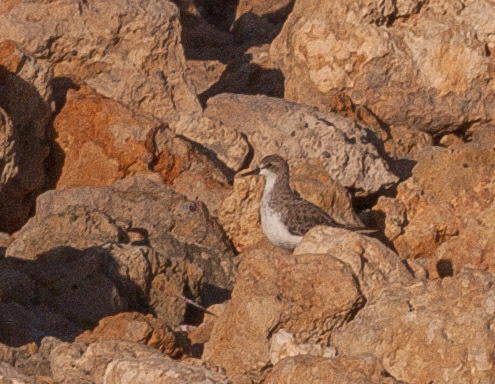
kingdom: Animalia
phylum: Chordata
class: Aves
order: Charadriiformes
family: Scolopacidae
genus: Calidris
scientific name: Calidris ruficollis
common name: Red-necked stint
